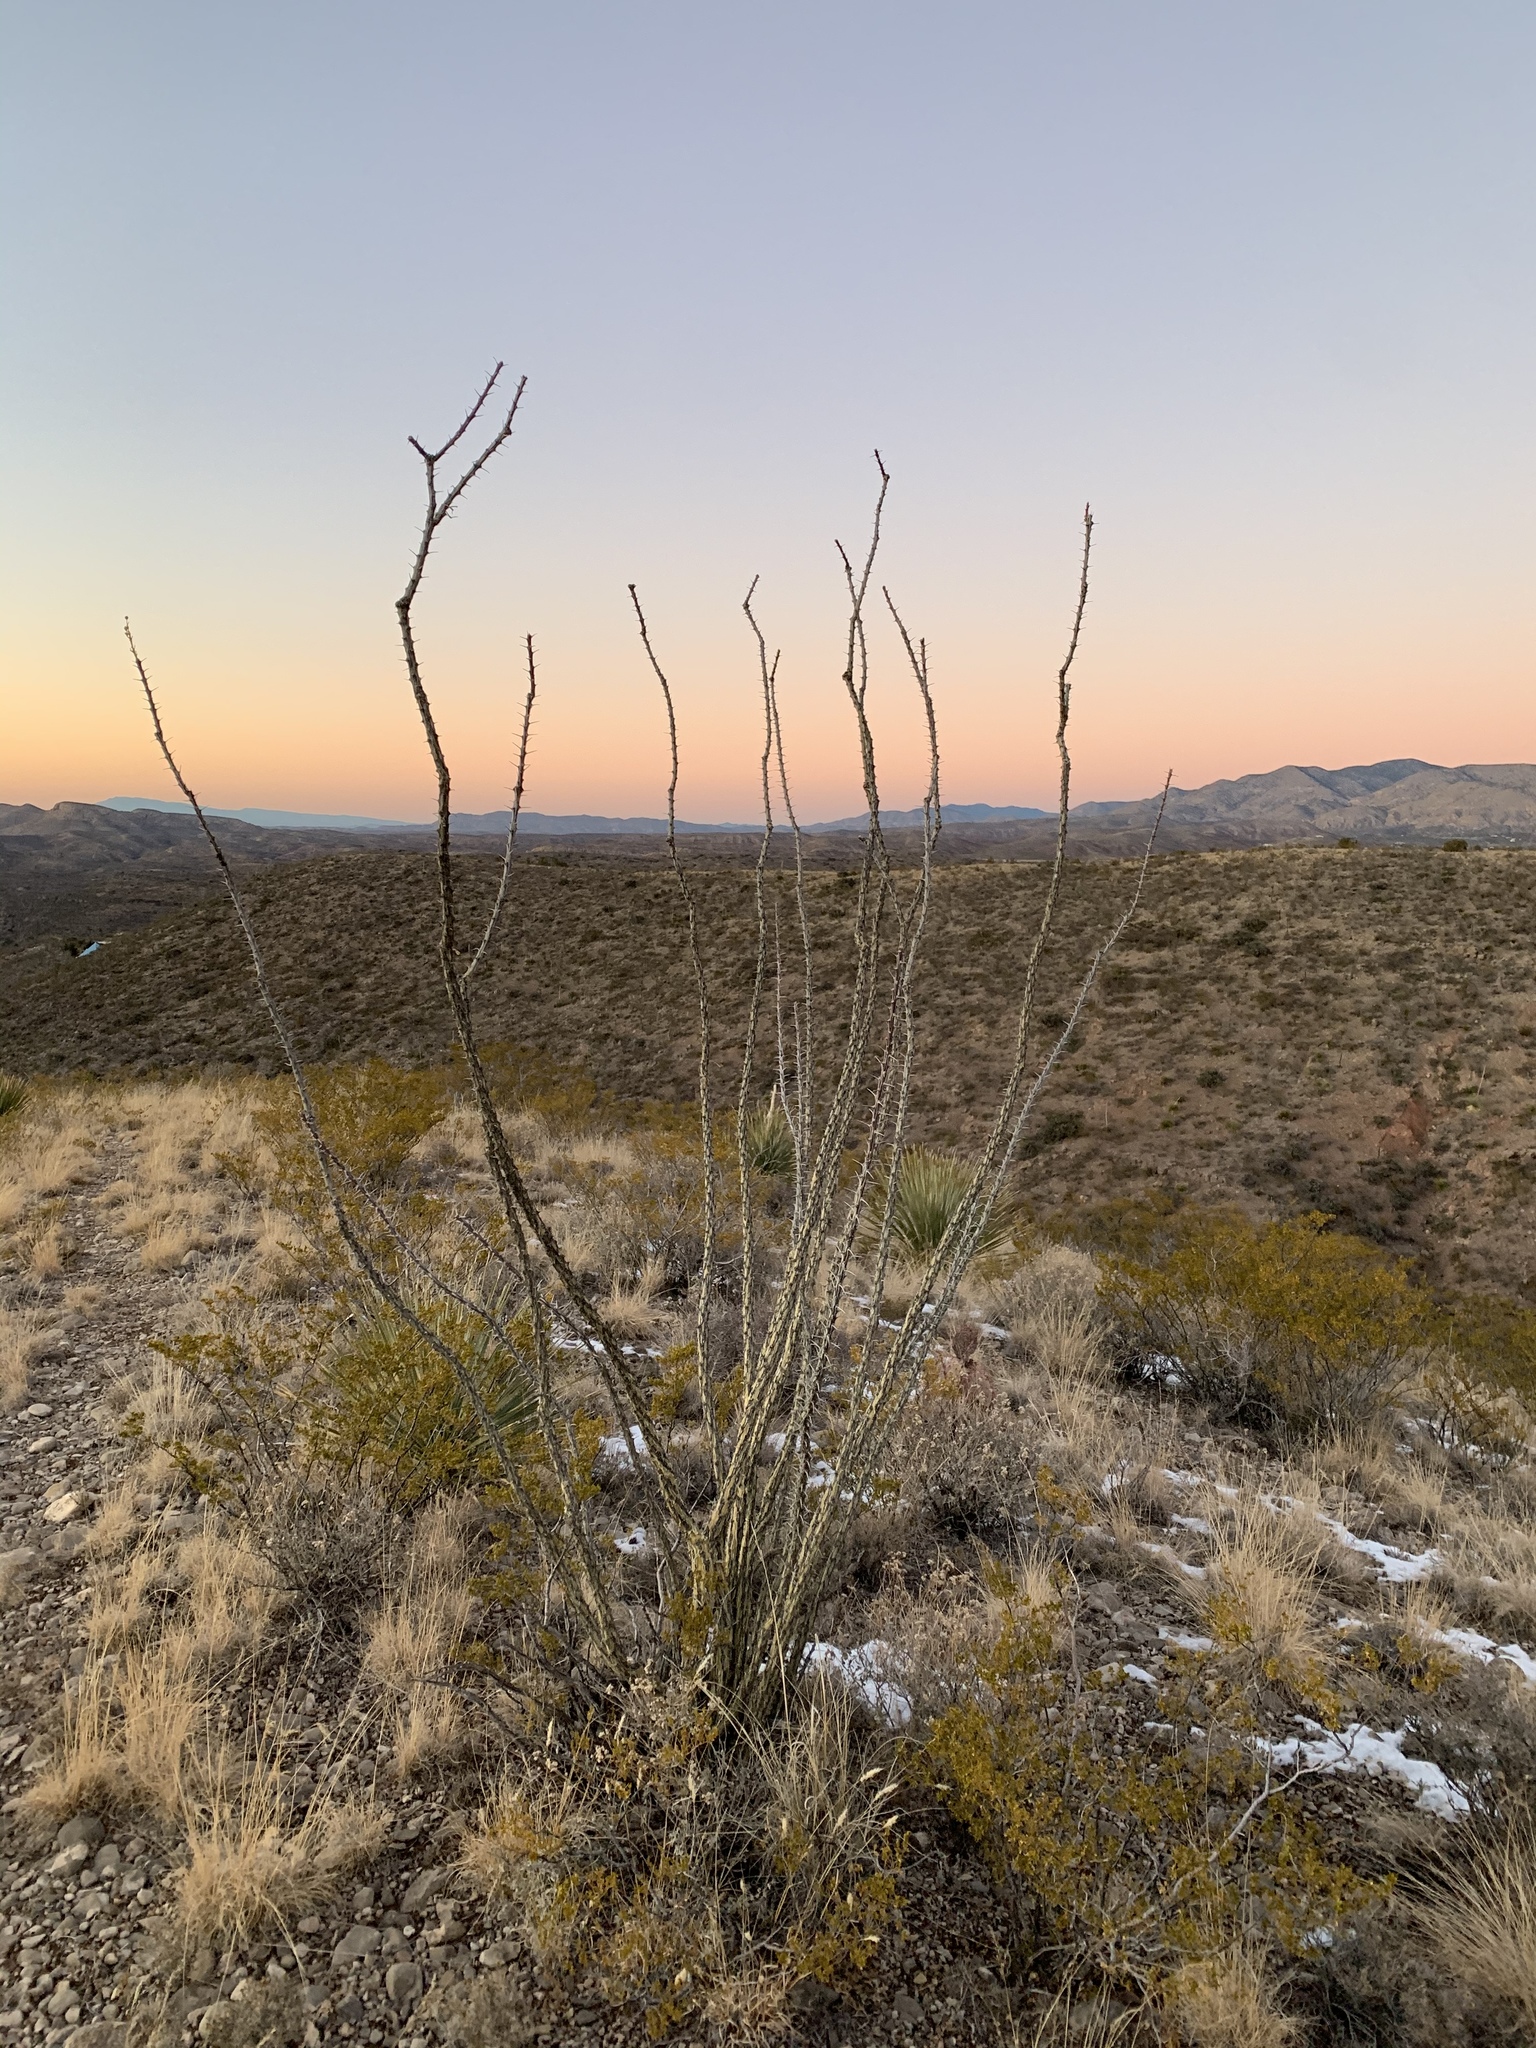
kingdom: Plantae
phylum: Tracheophyta
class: Magnoliopsida
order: Ericales
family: Fouquieriaceae
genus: Fouquieria
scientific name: Fouquieria splendens
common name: Vine-cactus
